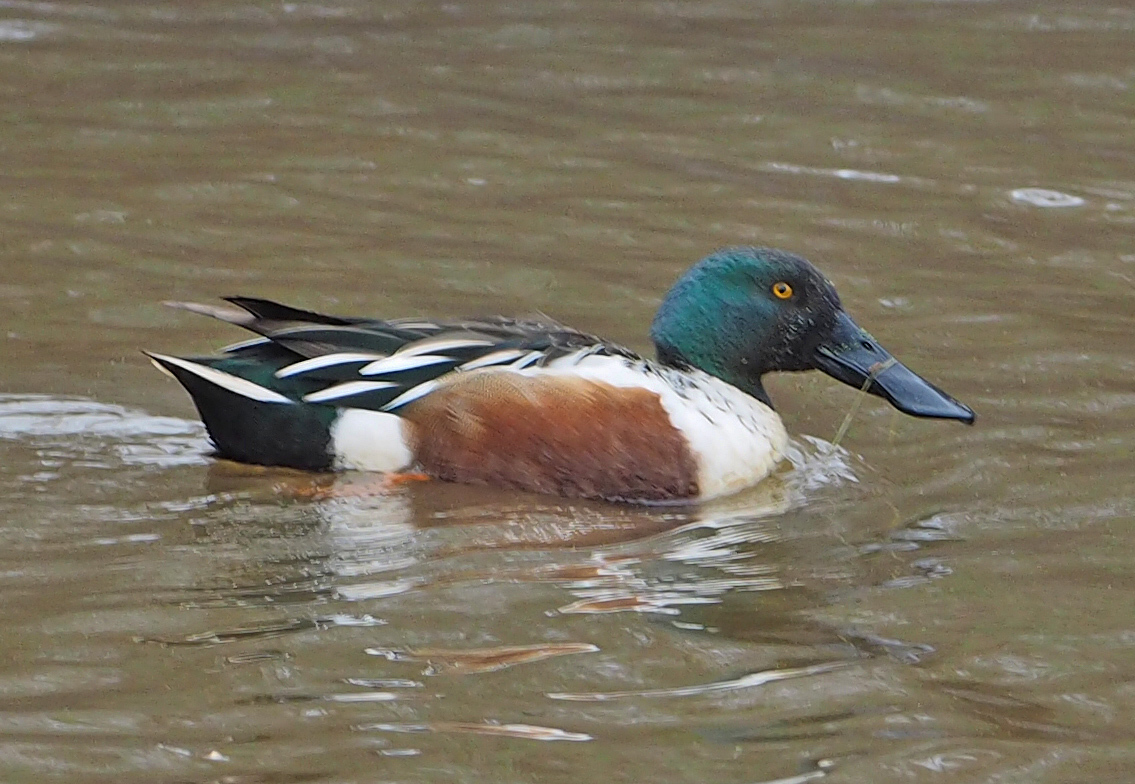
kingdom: Animalia
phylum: Chordata
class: Aves
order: Anseriformes
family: Anatidae
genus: Spatula
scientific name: Spatula clypeata
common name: Northern shoveler
